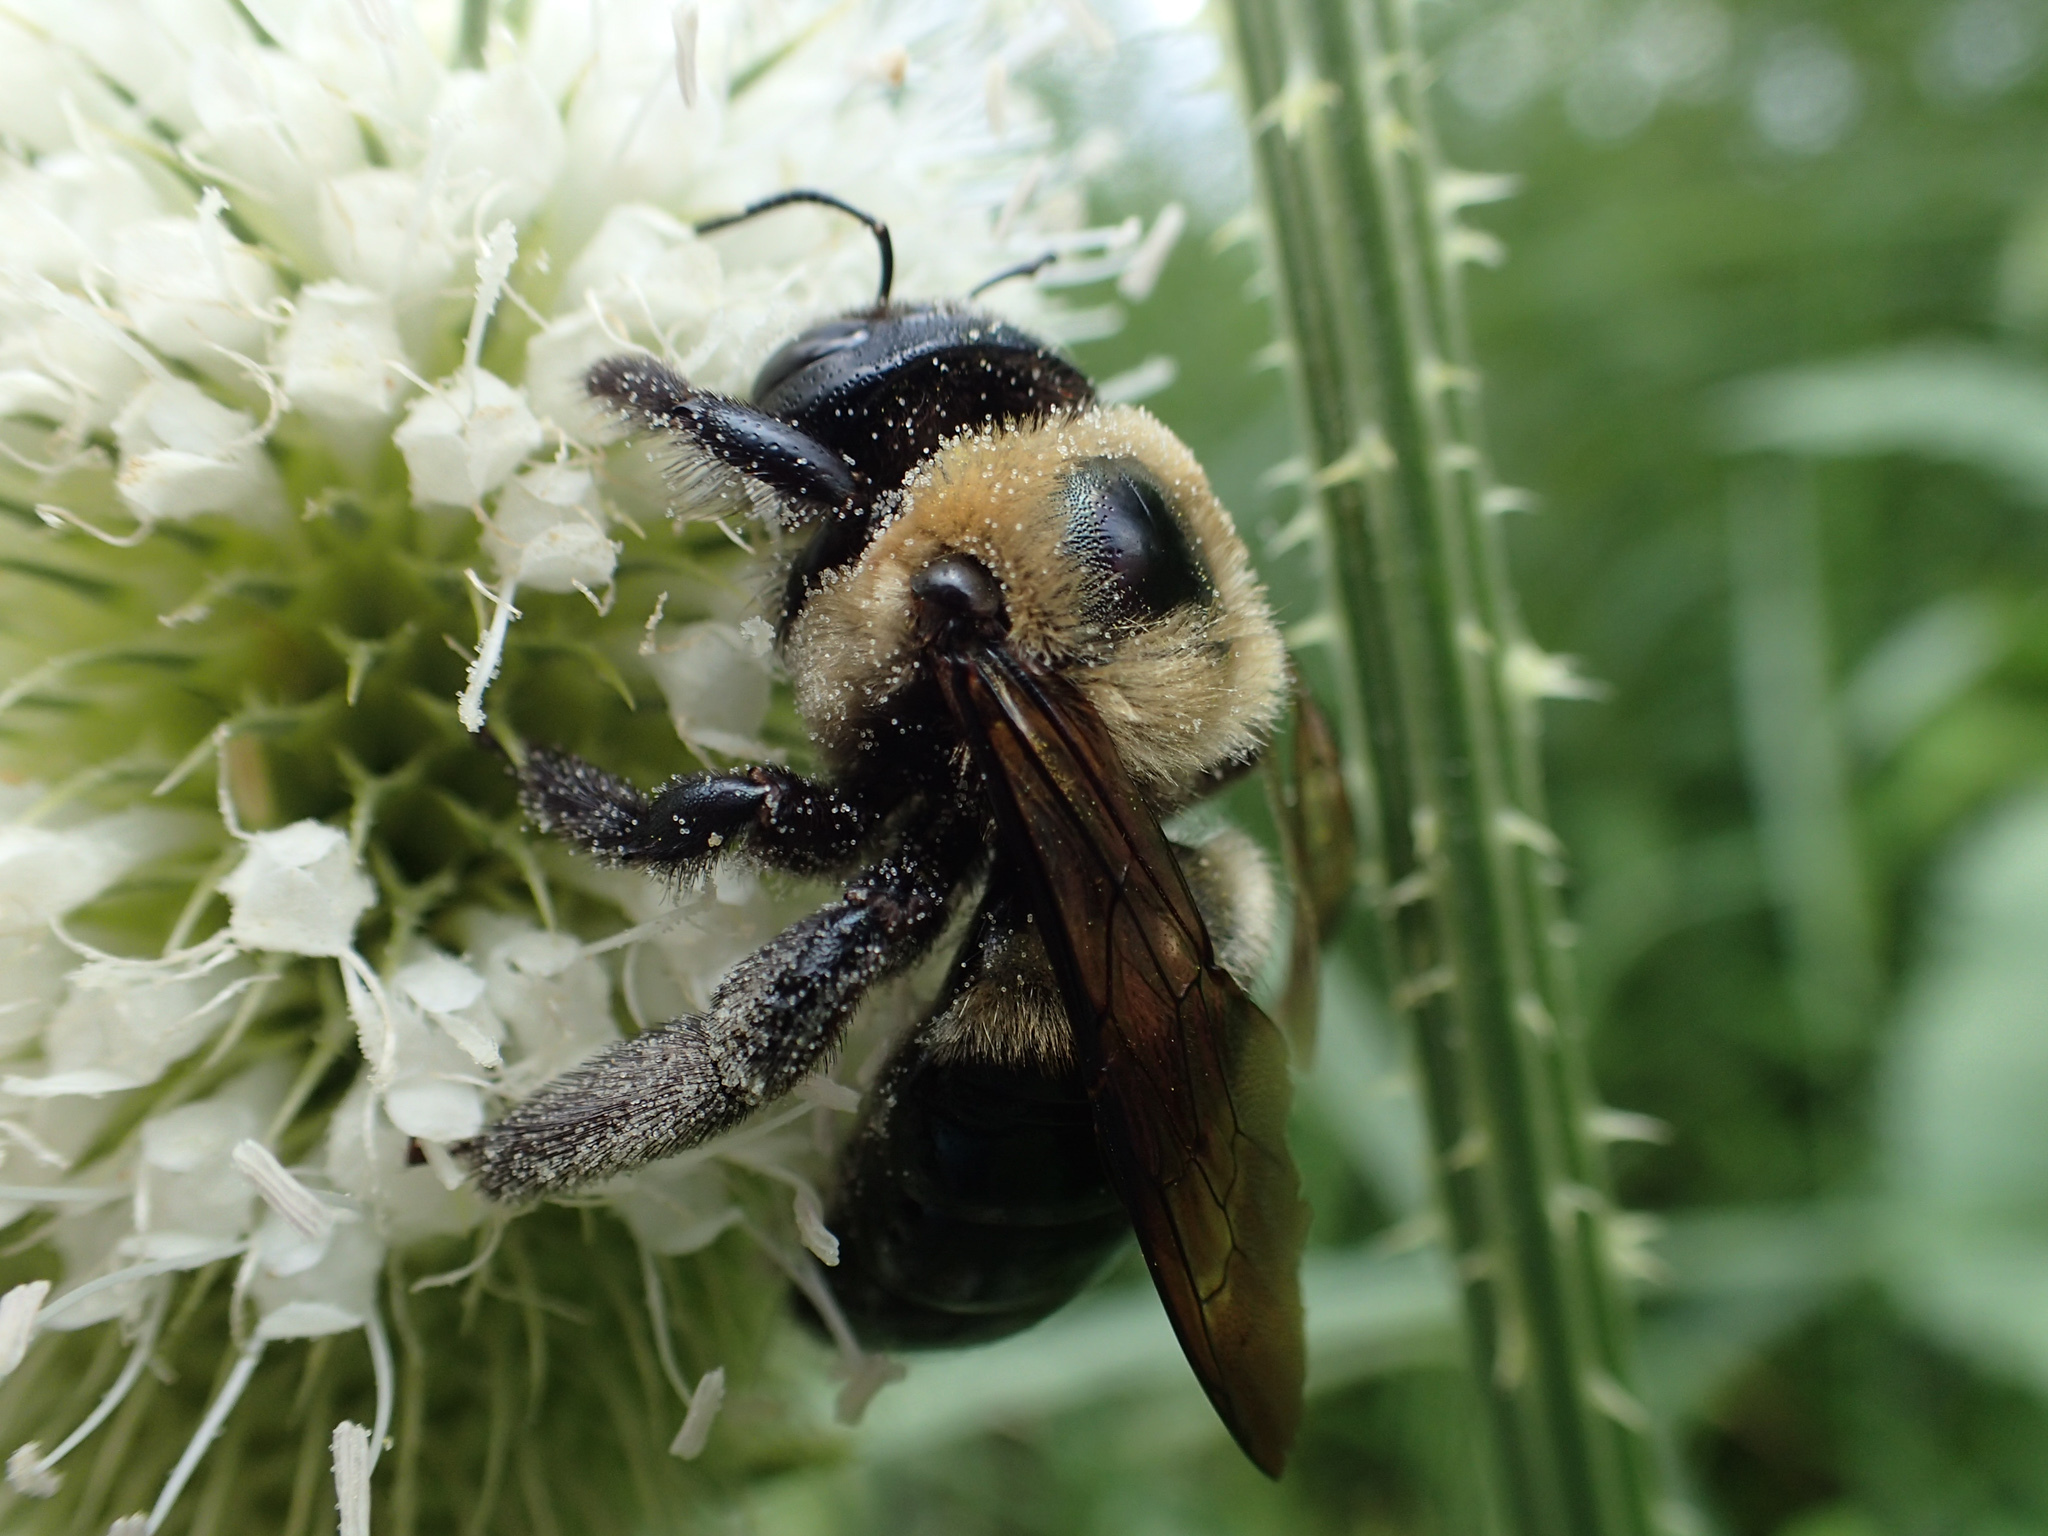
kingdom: Animalia
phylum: Arthropoda
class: Insecta
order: Hymenoptera
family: Apidae
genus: Xylocopa
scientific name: Xylocopa virginica
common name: Carpenter bee
